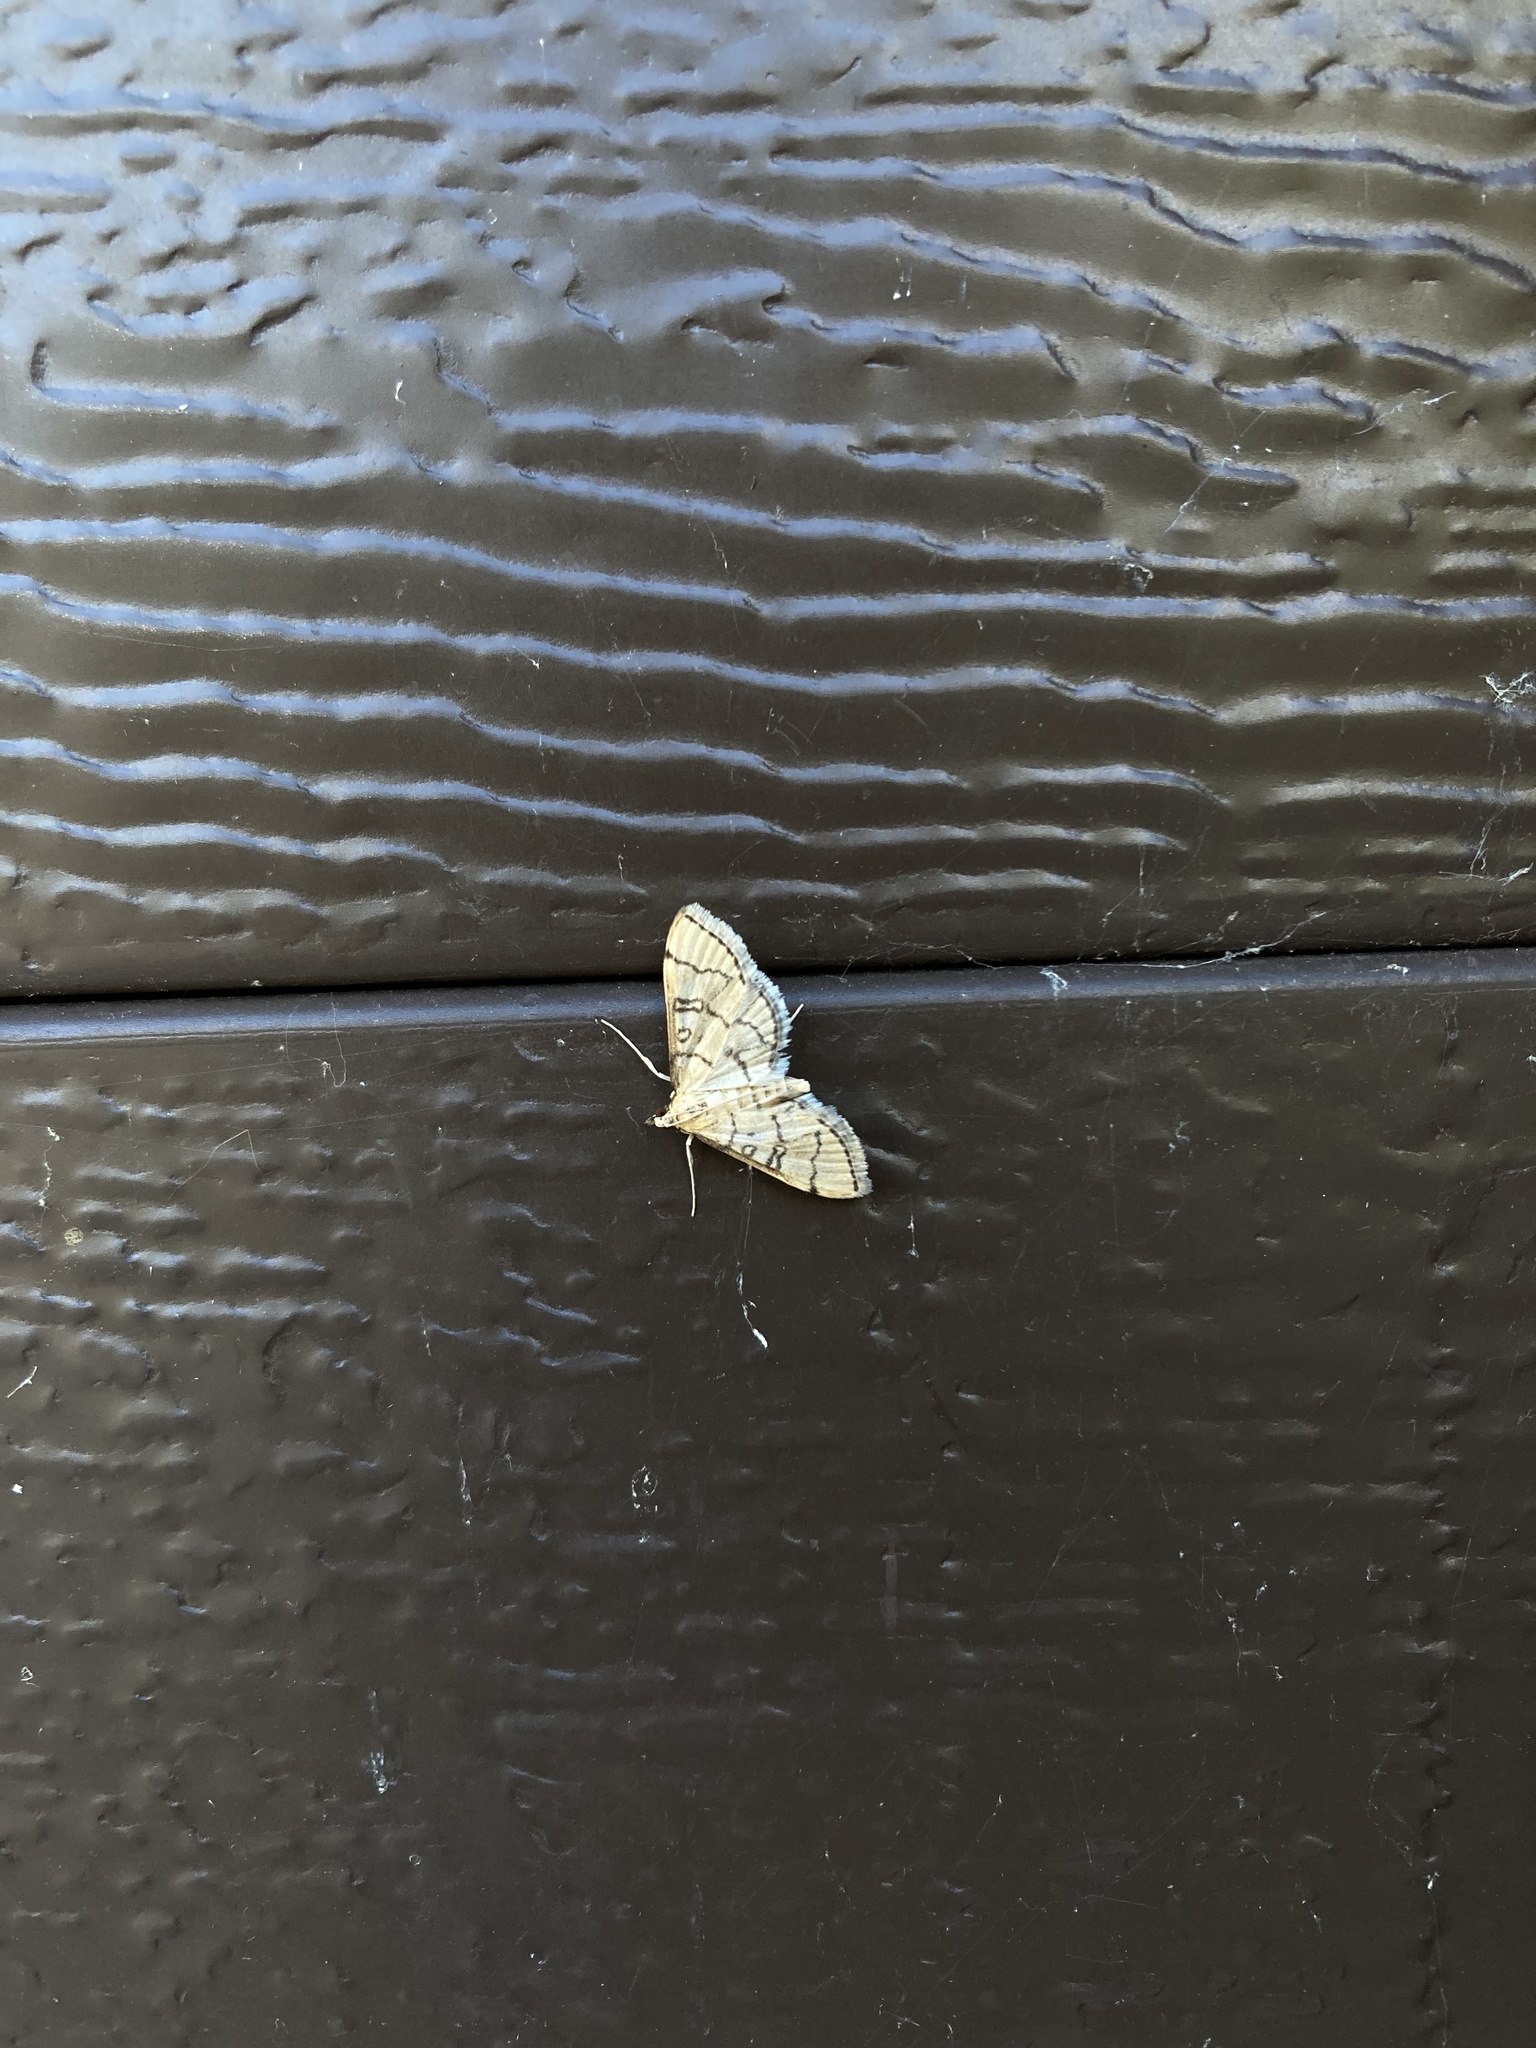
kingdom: Animalia
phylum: Arthropoda
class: Insecta
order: Lepidoptera
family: Crambidae
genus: Lamprosema
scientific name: Lamprosema Blepharomastix ranalis
